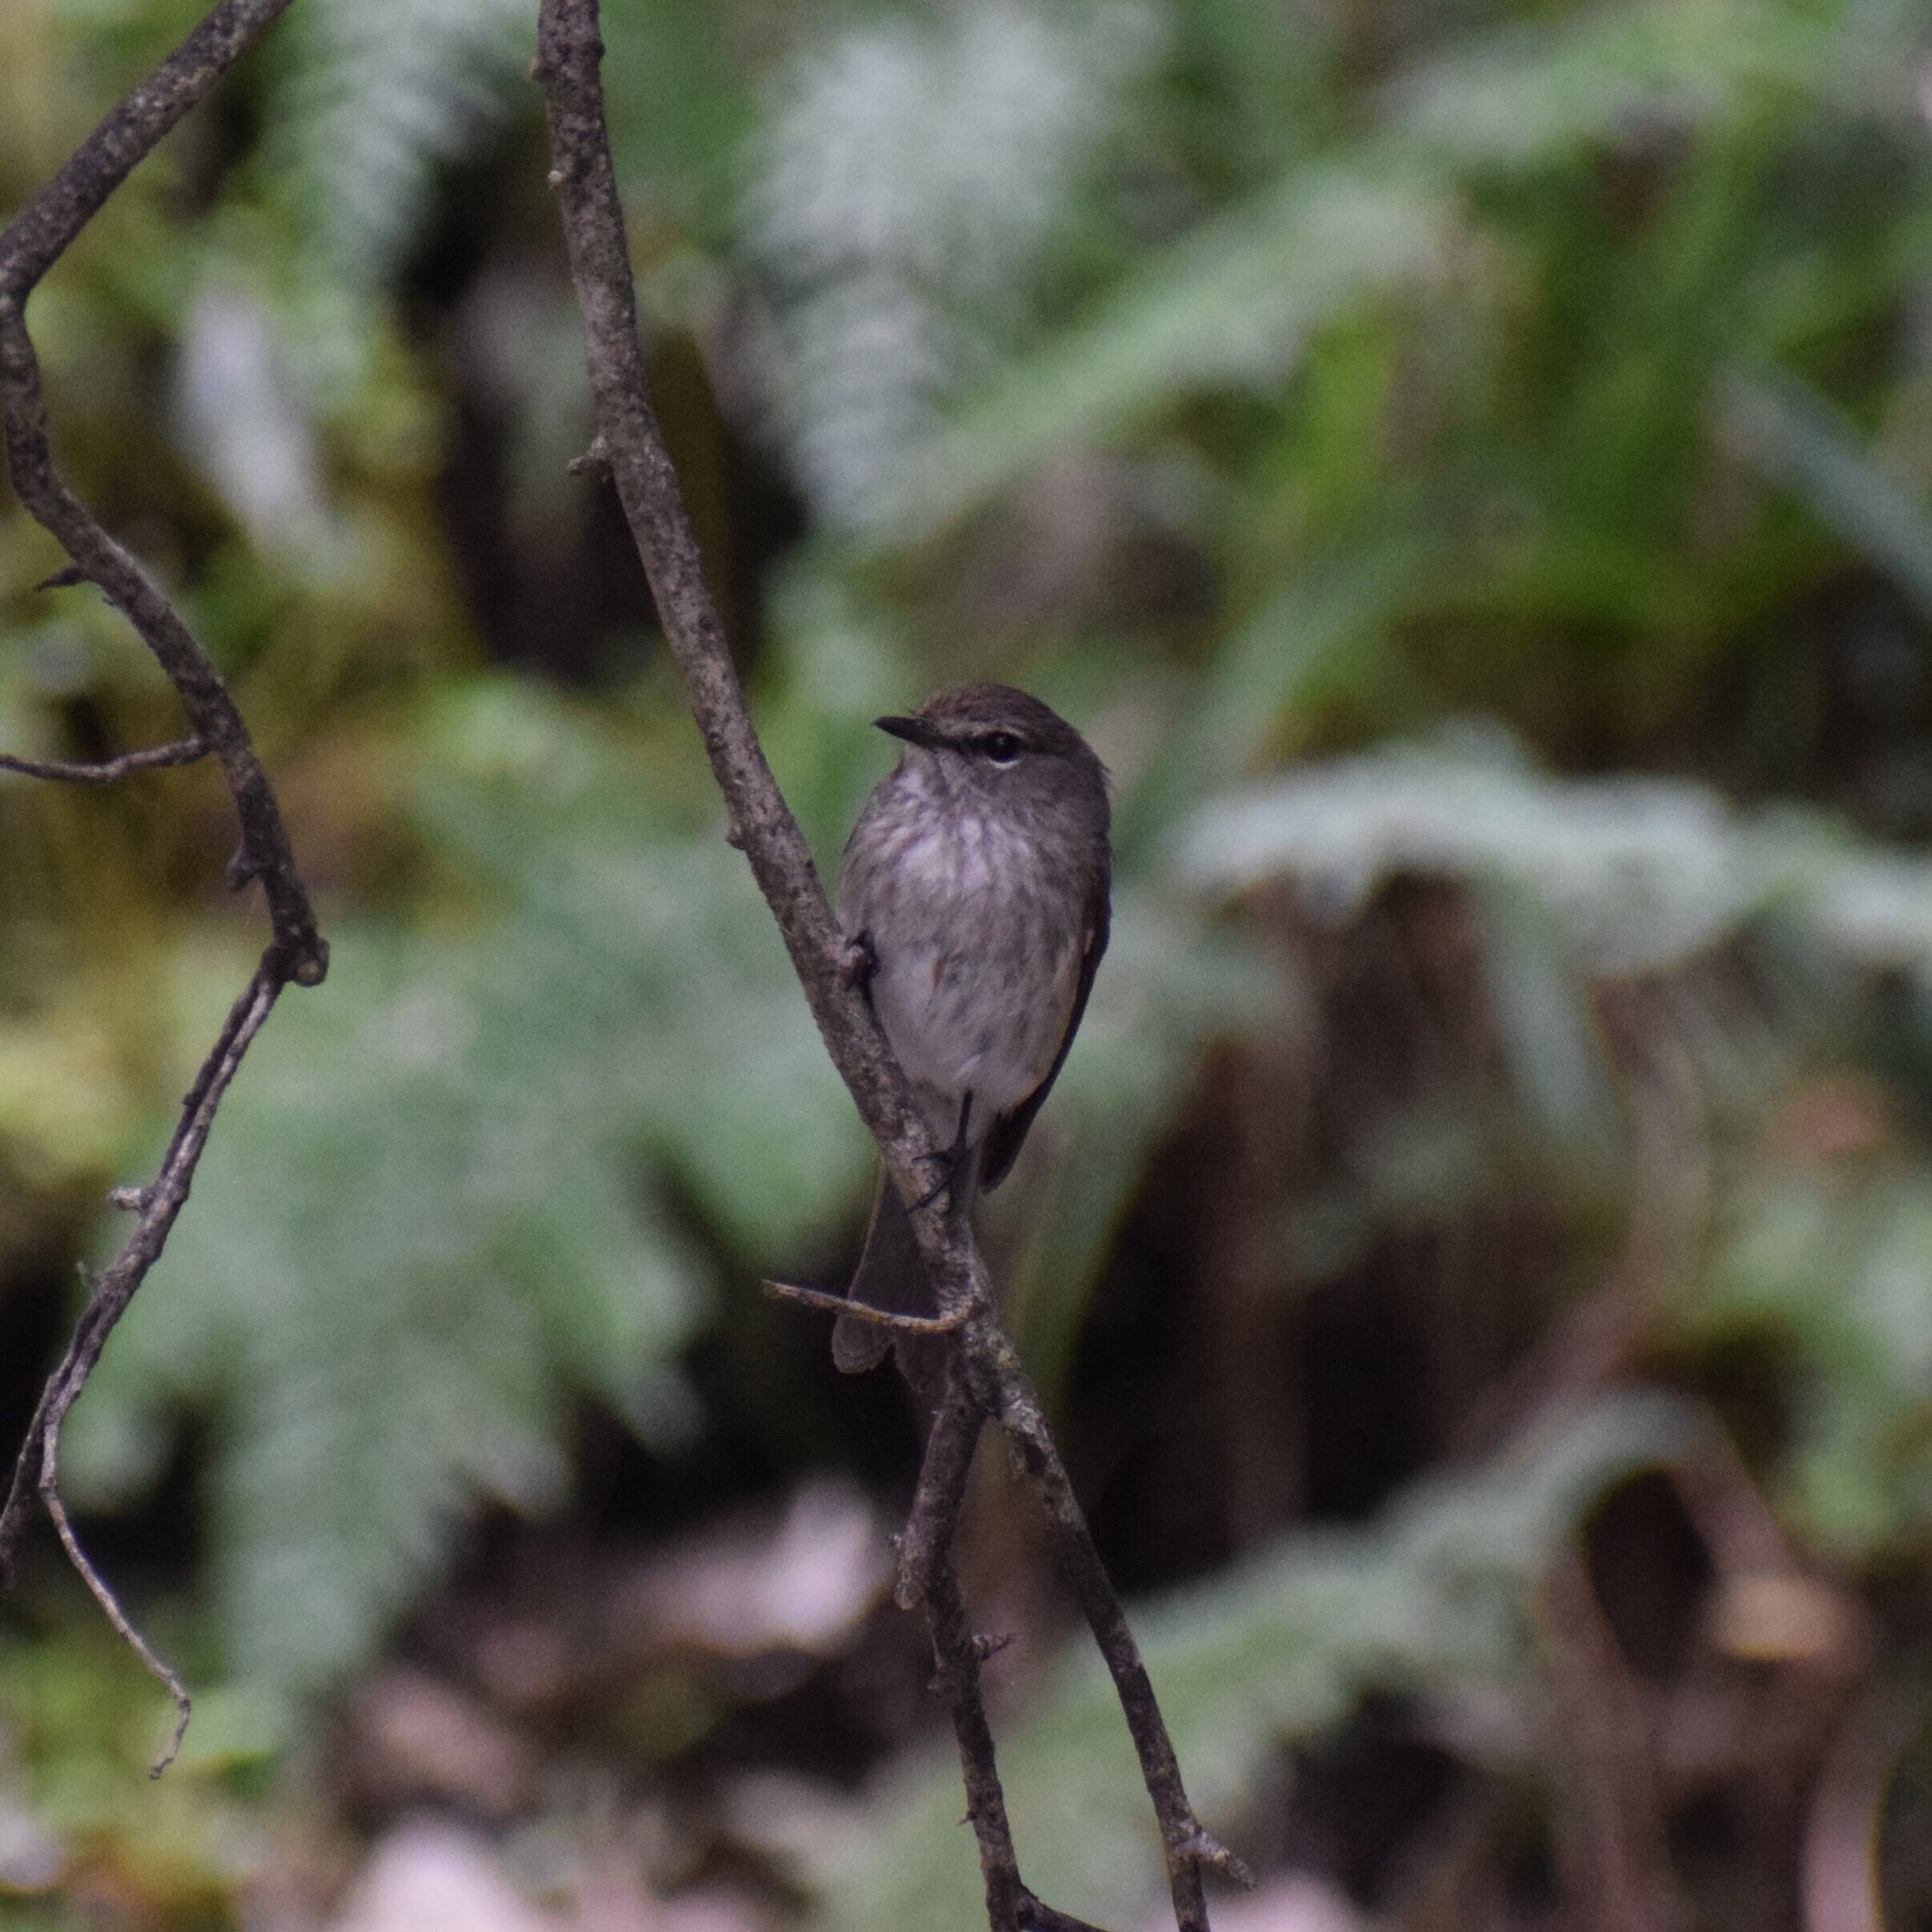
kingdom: Animalia
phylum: Chordata
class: Aves
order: Passeriformes
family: Muscicapidae
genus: Muscicapa
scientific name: Muscicapa adusta
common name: African dusky flycatcher
